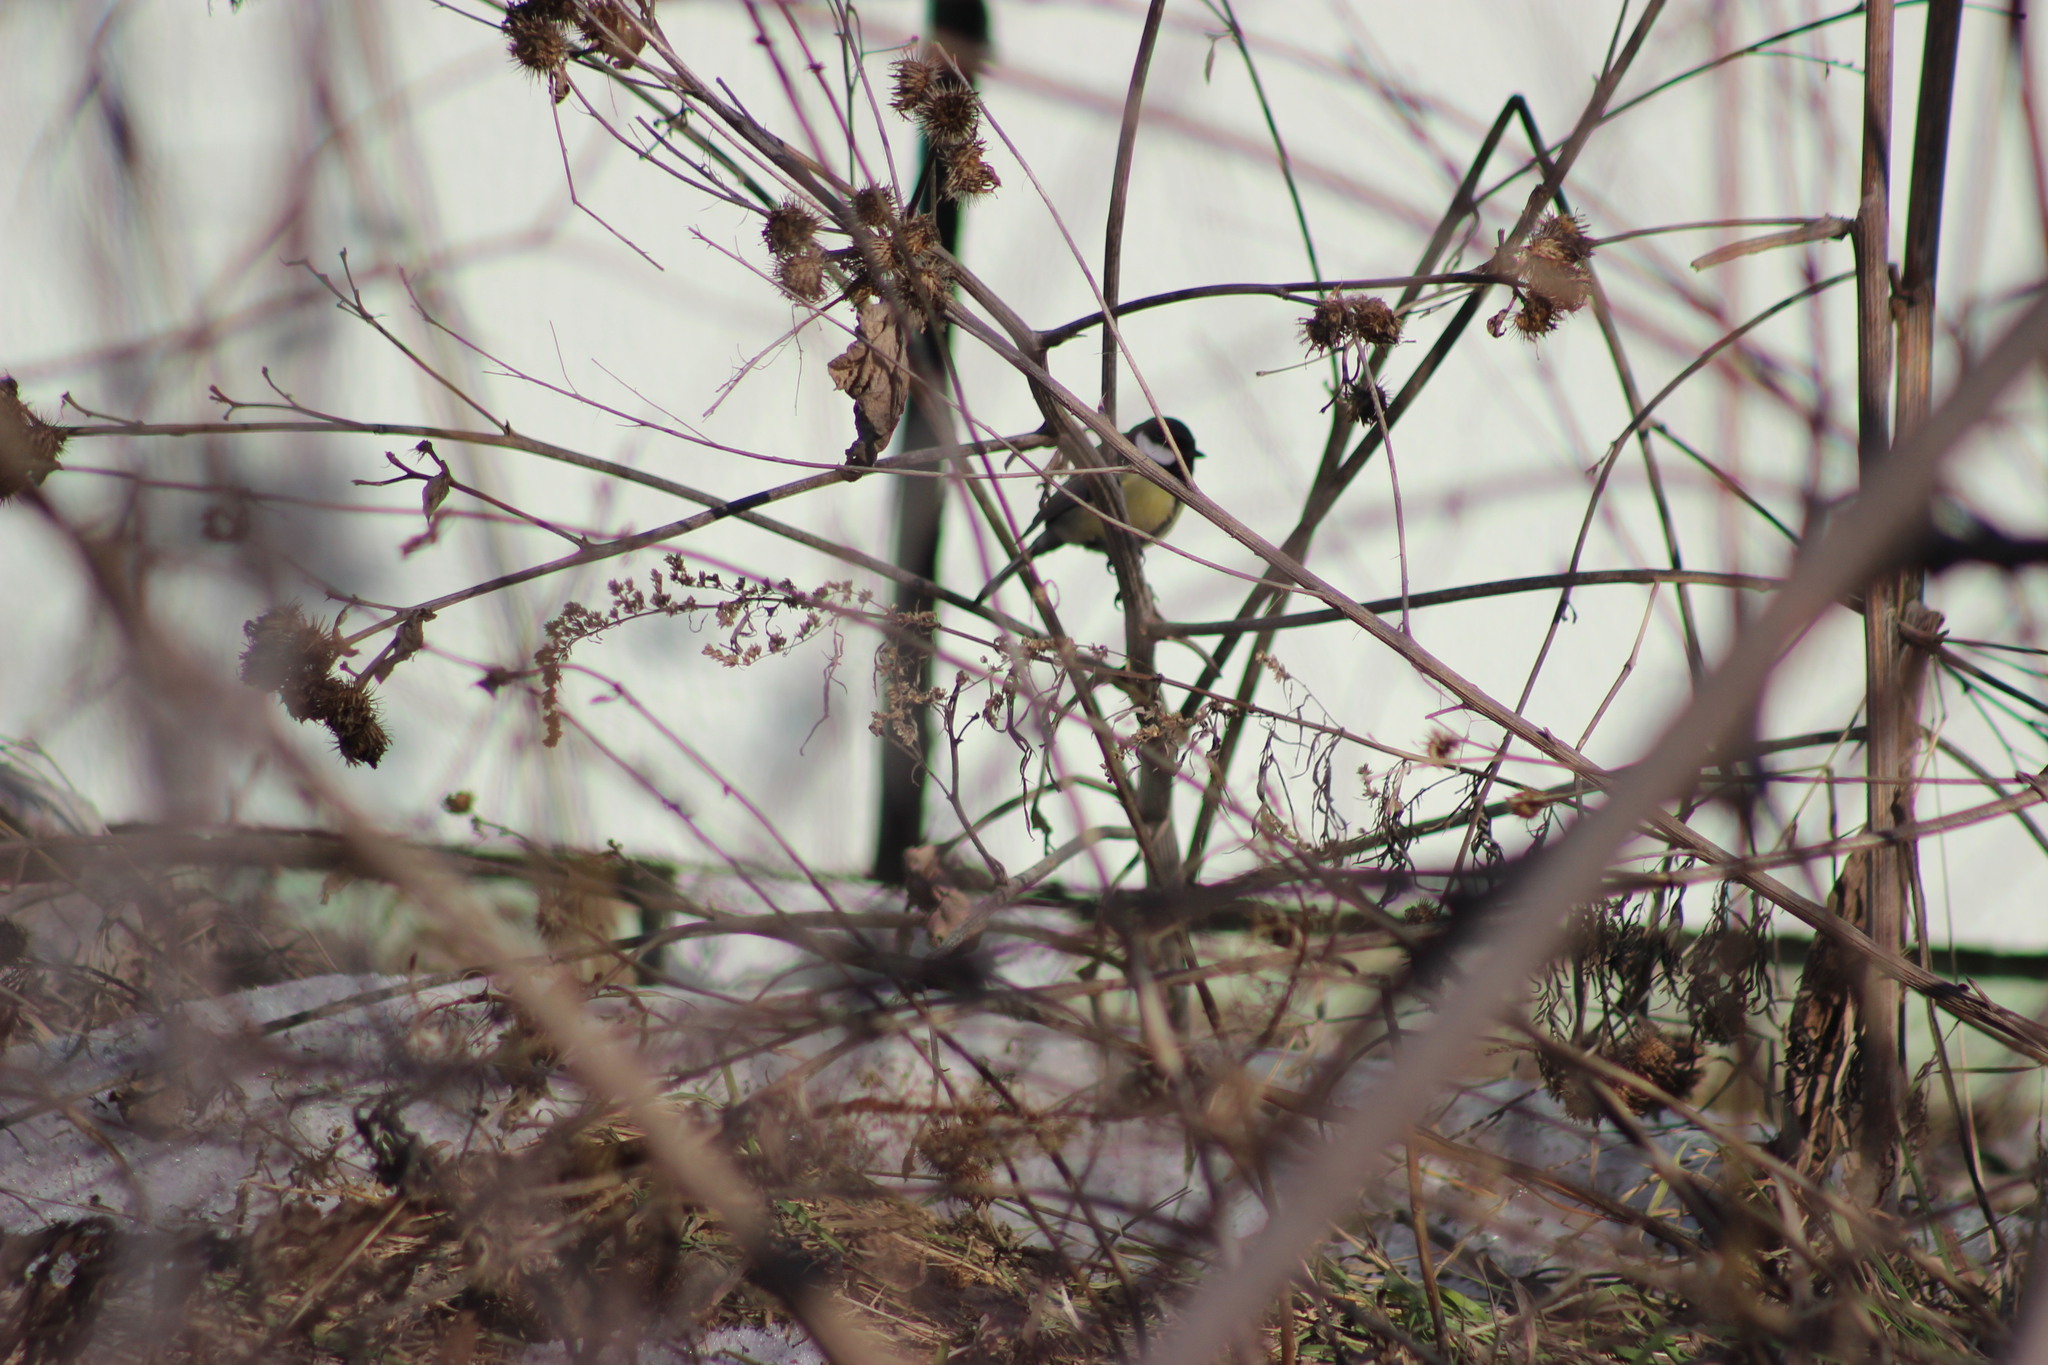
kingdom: Animalia
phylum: Chordata
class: Aves
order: Passeriformes
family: Paridae
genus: Parus
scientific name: Parus major
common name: Great tit
